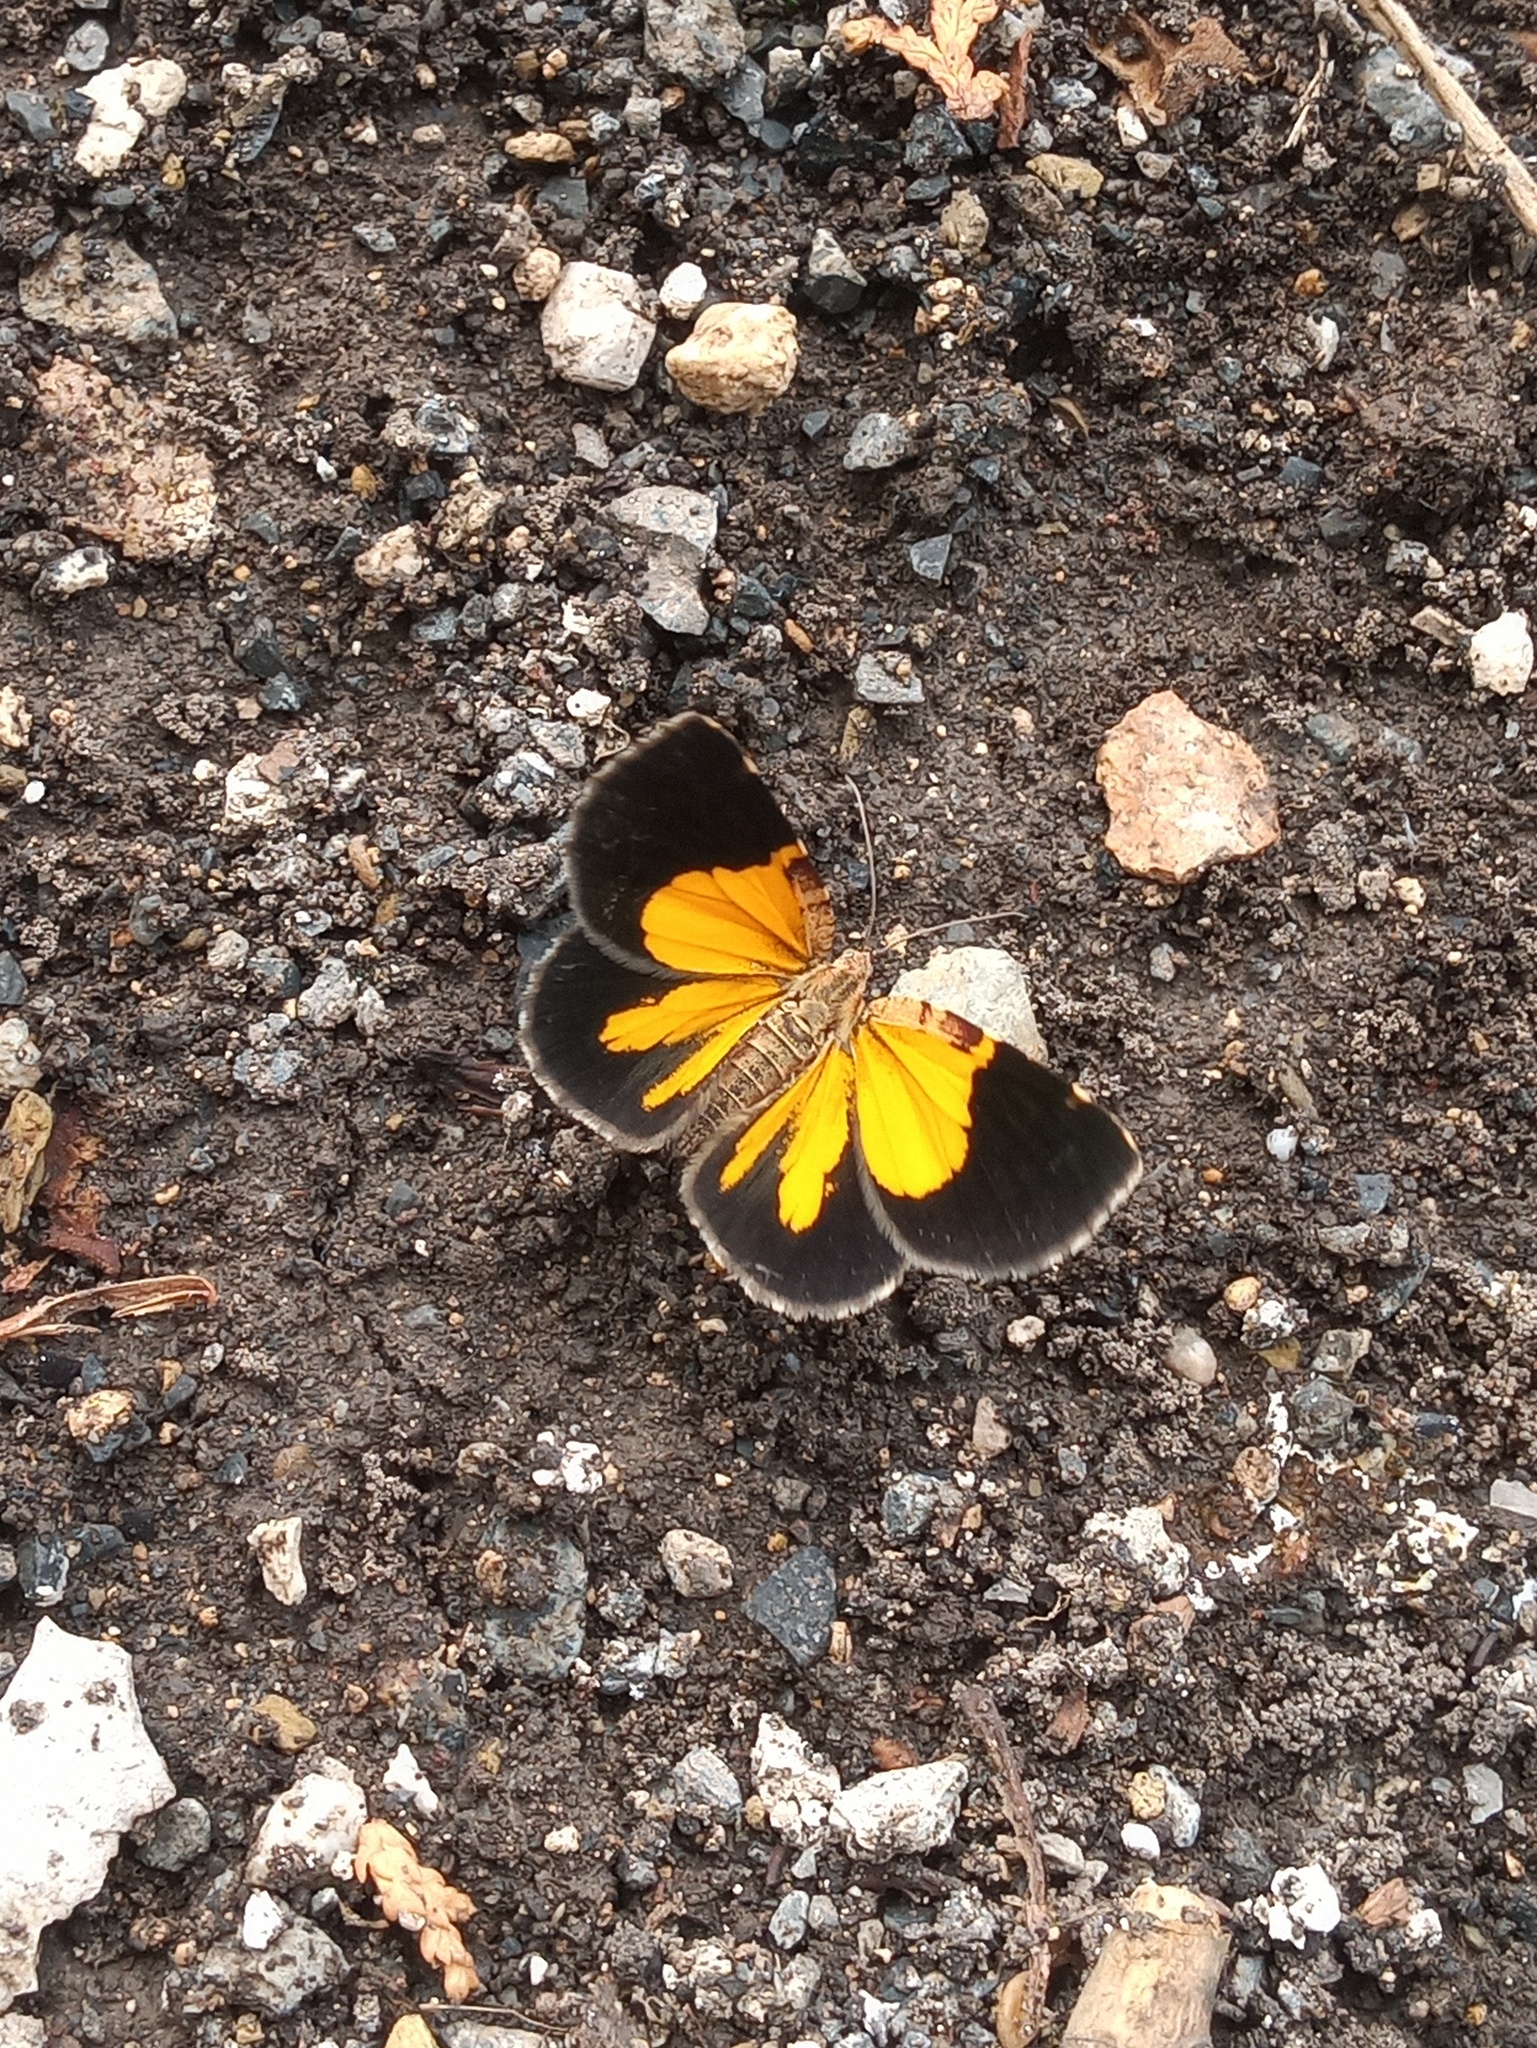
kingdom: Animalia
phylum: Arthropoda
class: Insecta
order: Lepidoptera
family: Geometridae
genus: Heterusia
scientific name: Heterusia atalantata
